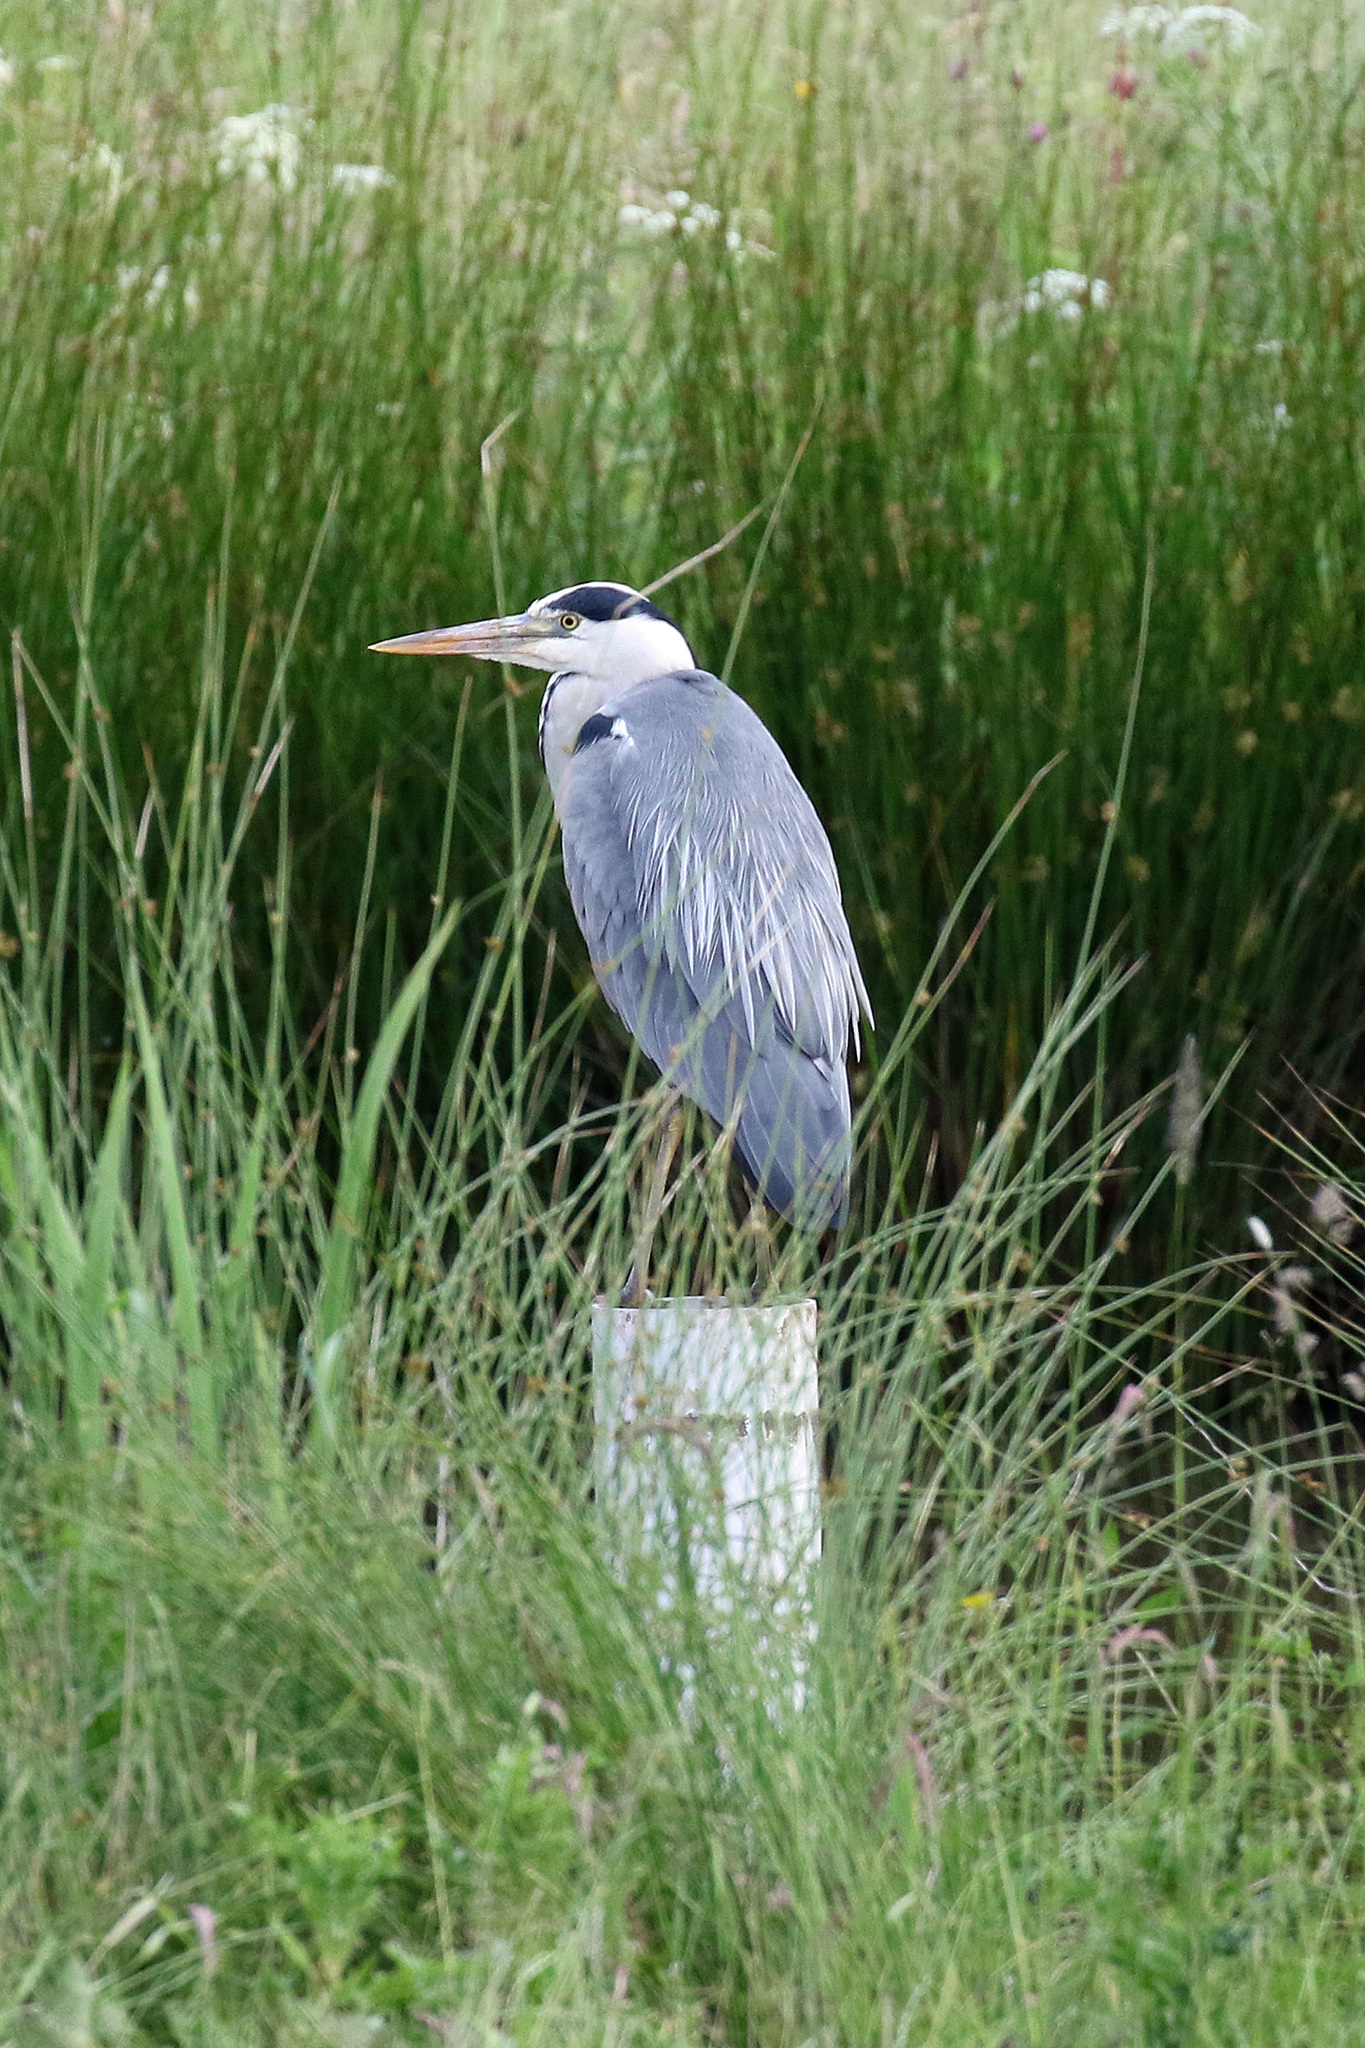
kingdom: Animalia
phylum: Chordata
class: Aves
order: Pelecaniformes
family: Ardeidae
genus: Ardea
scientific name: Ardea cinerea
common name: Grey heron
